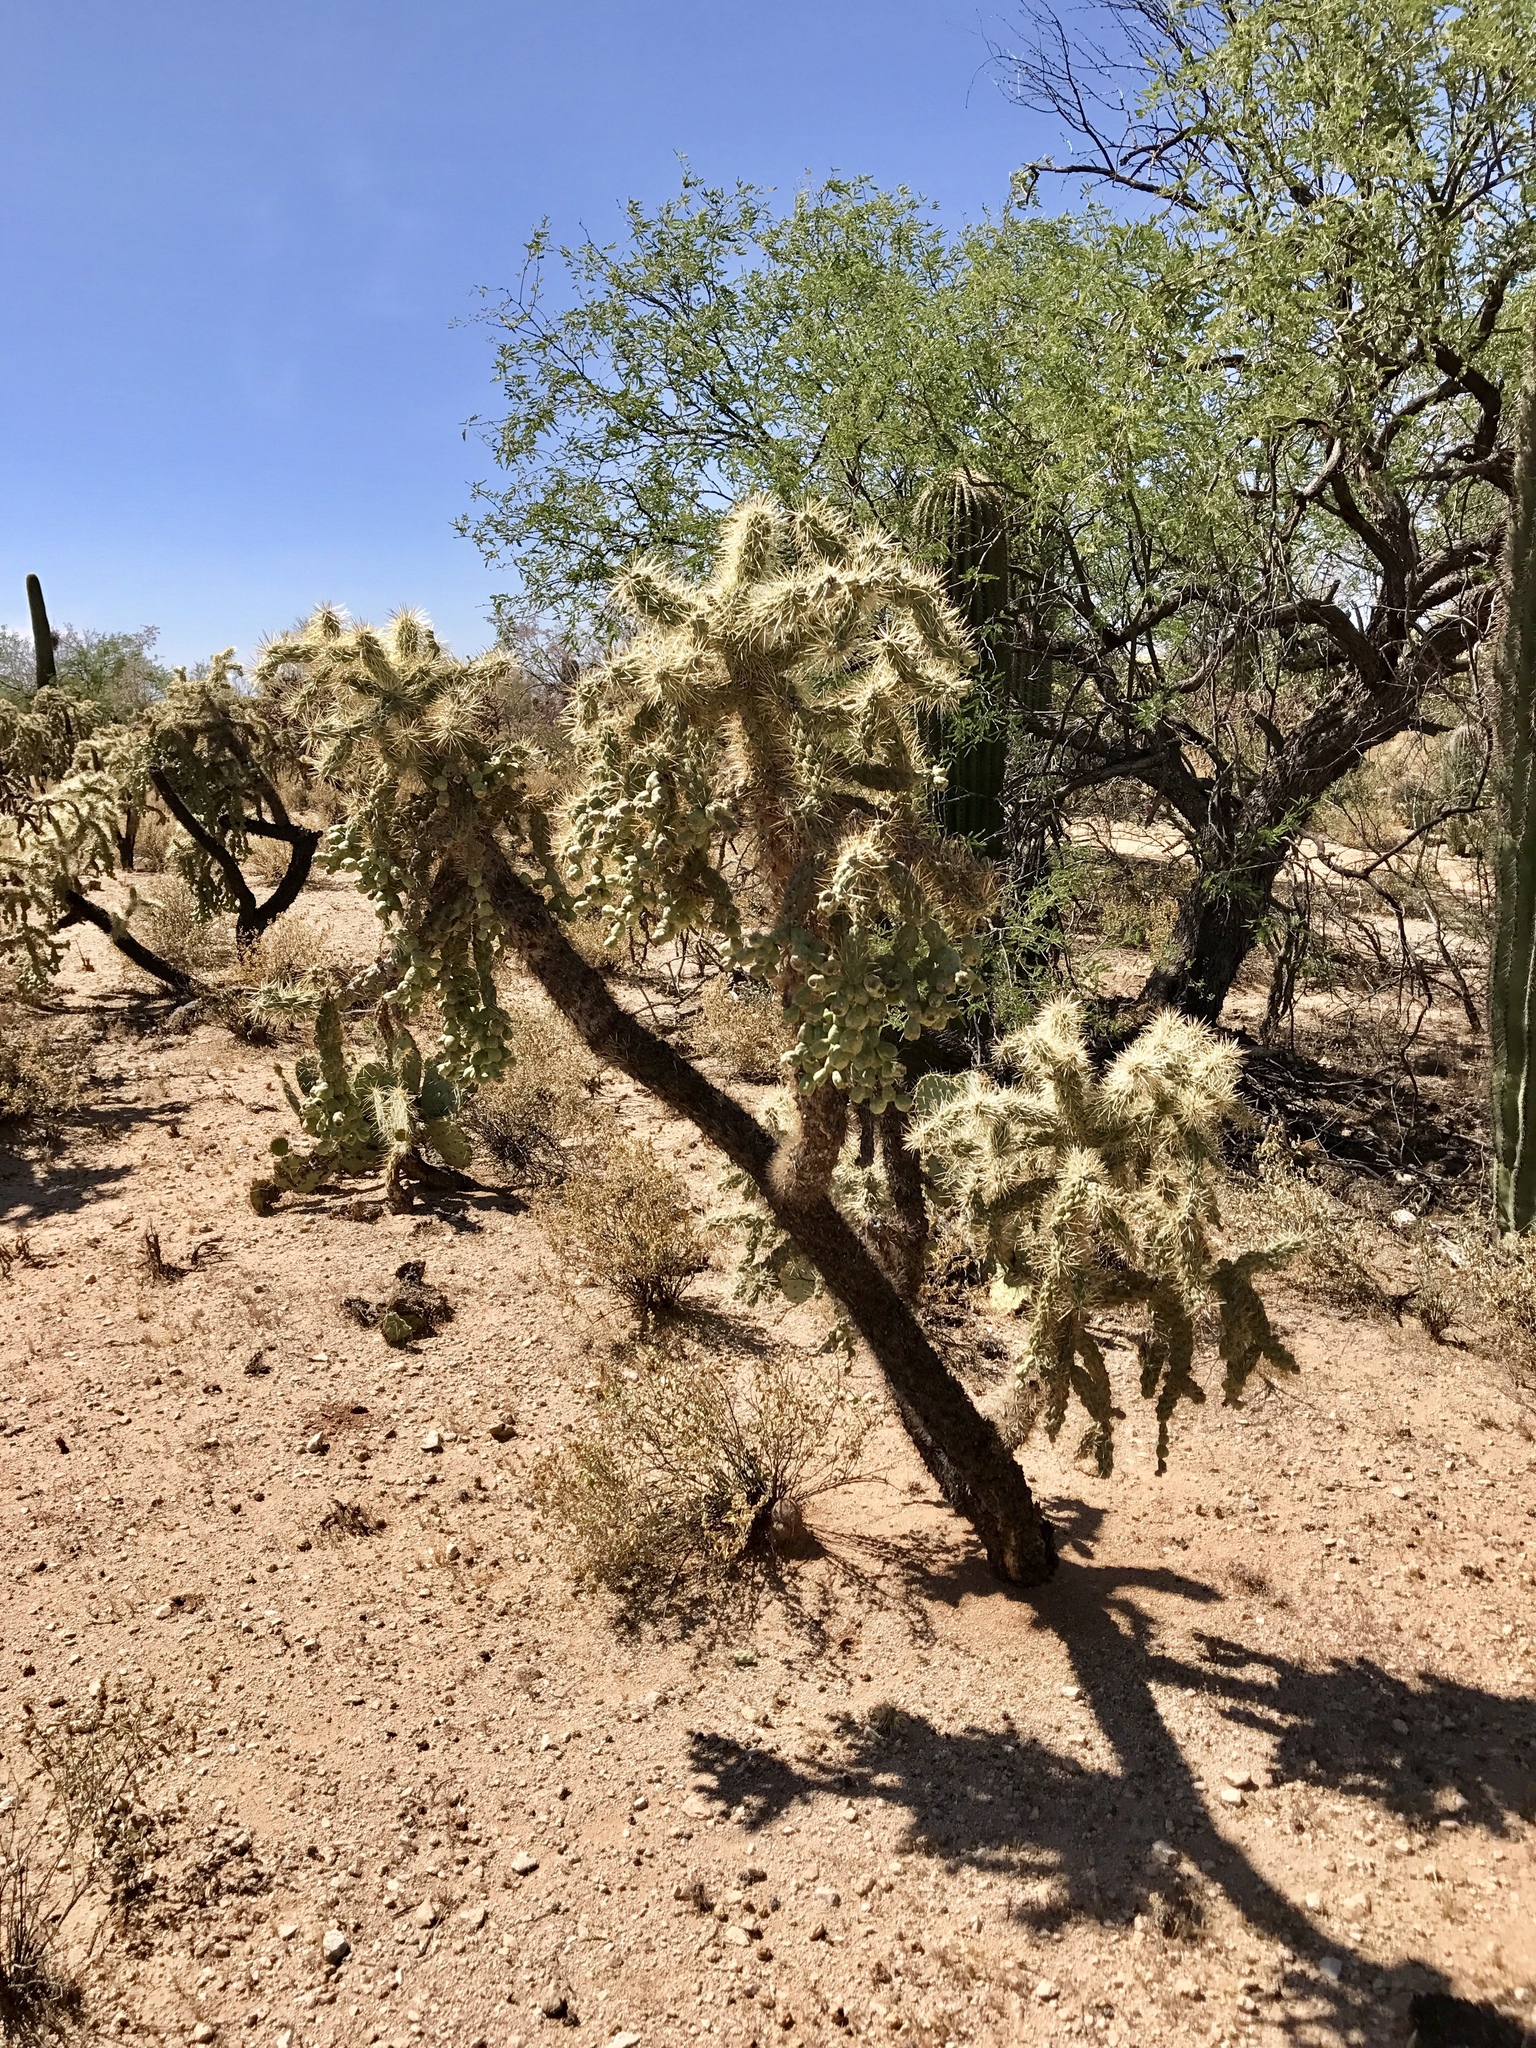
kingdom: Plantae
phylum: Tracheophyta
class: Magnoliopsida
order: Caryophyllales
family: Cactaceae
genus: Cylindropuntia
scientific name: Cylindropuntia fulgida
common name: Jumping cholla
